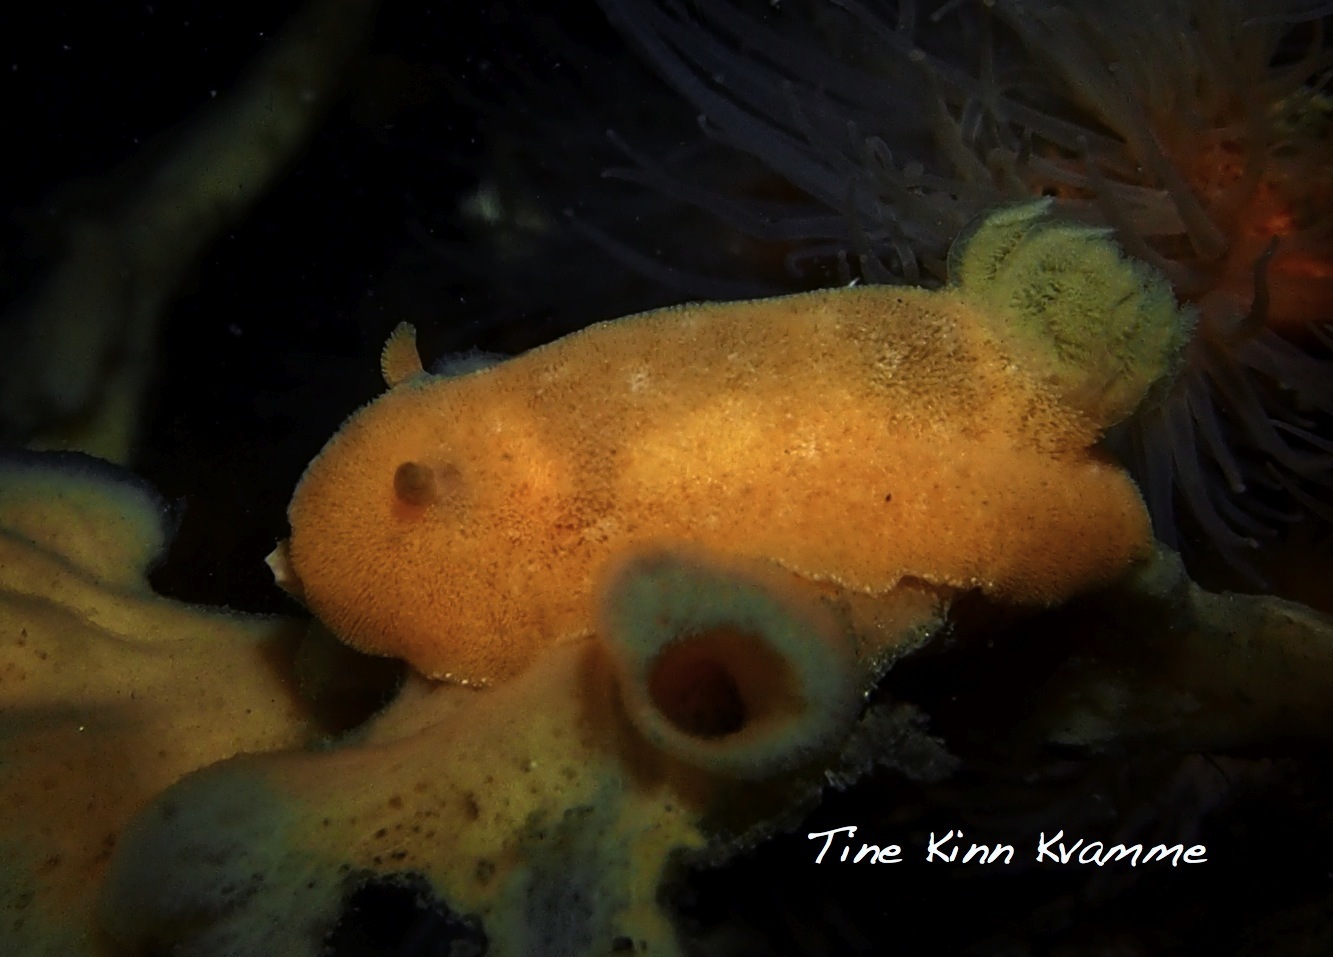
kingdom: Animalia
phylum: Mollusca
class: Gastropoda
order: Nudibranchia
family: Discodorididae
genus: Jorunna
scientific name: Jorunna tomentosa
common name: Grey sea slug
